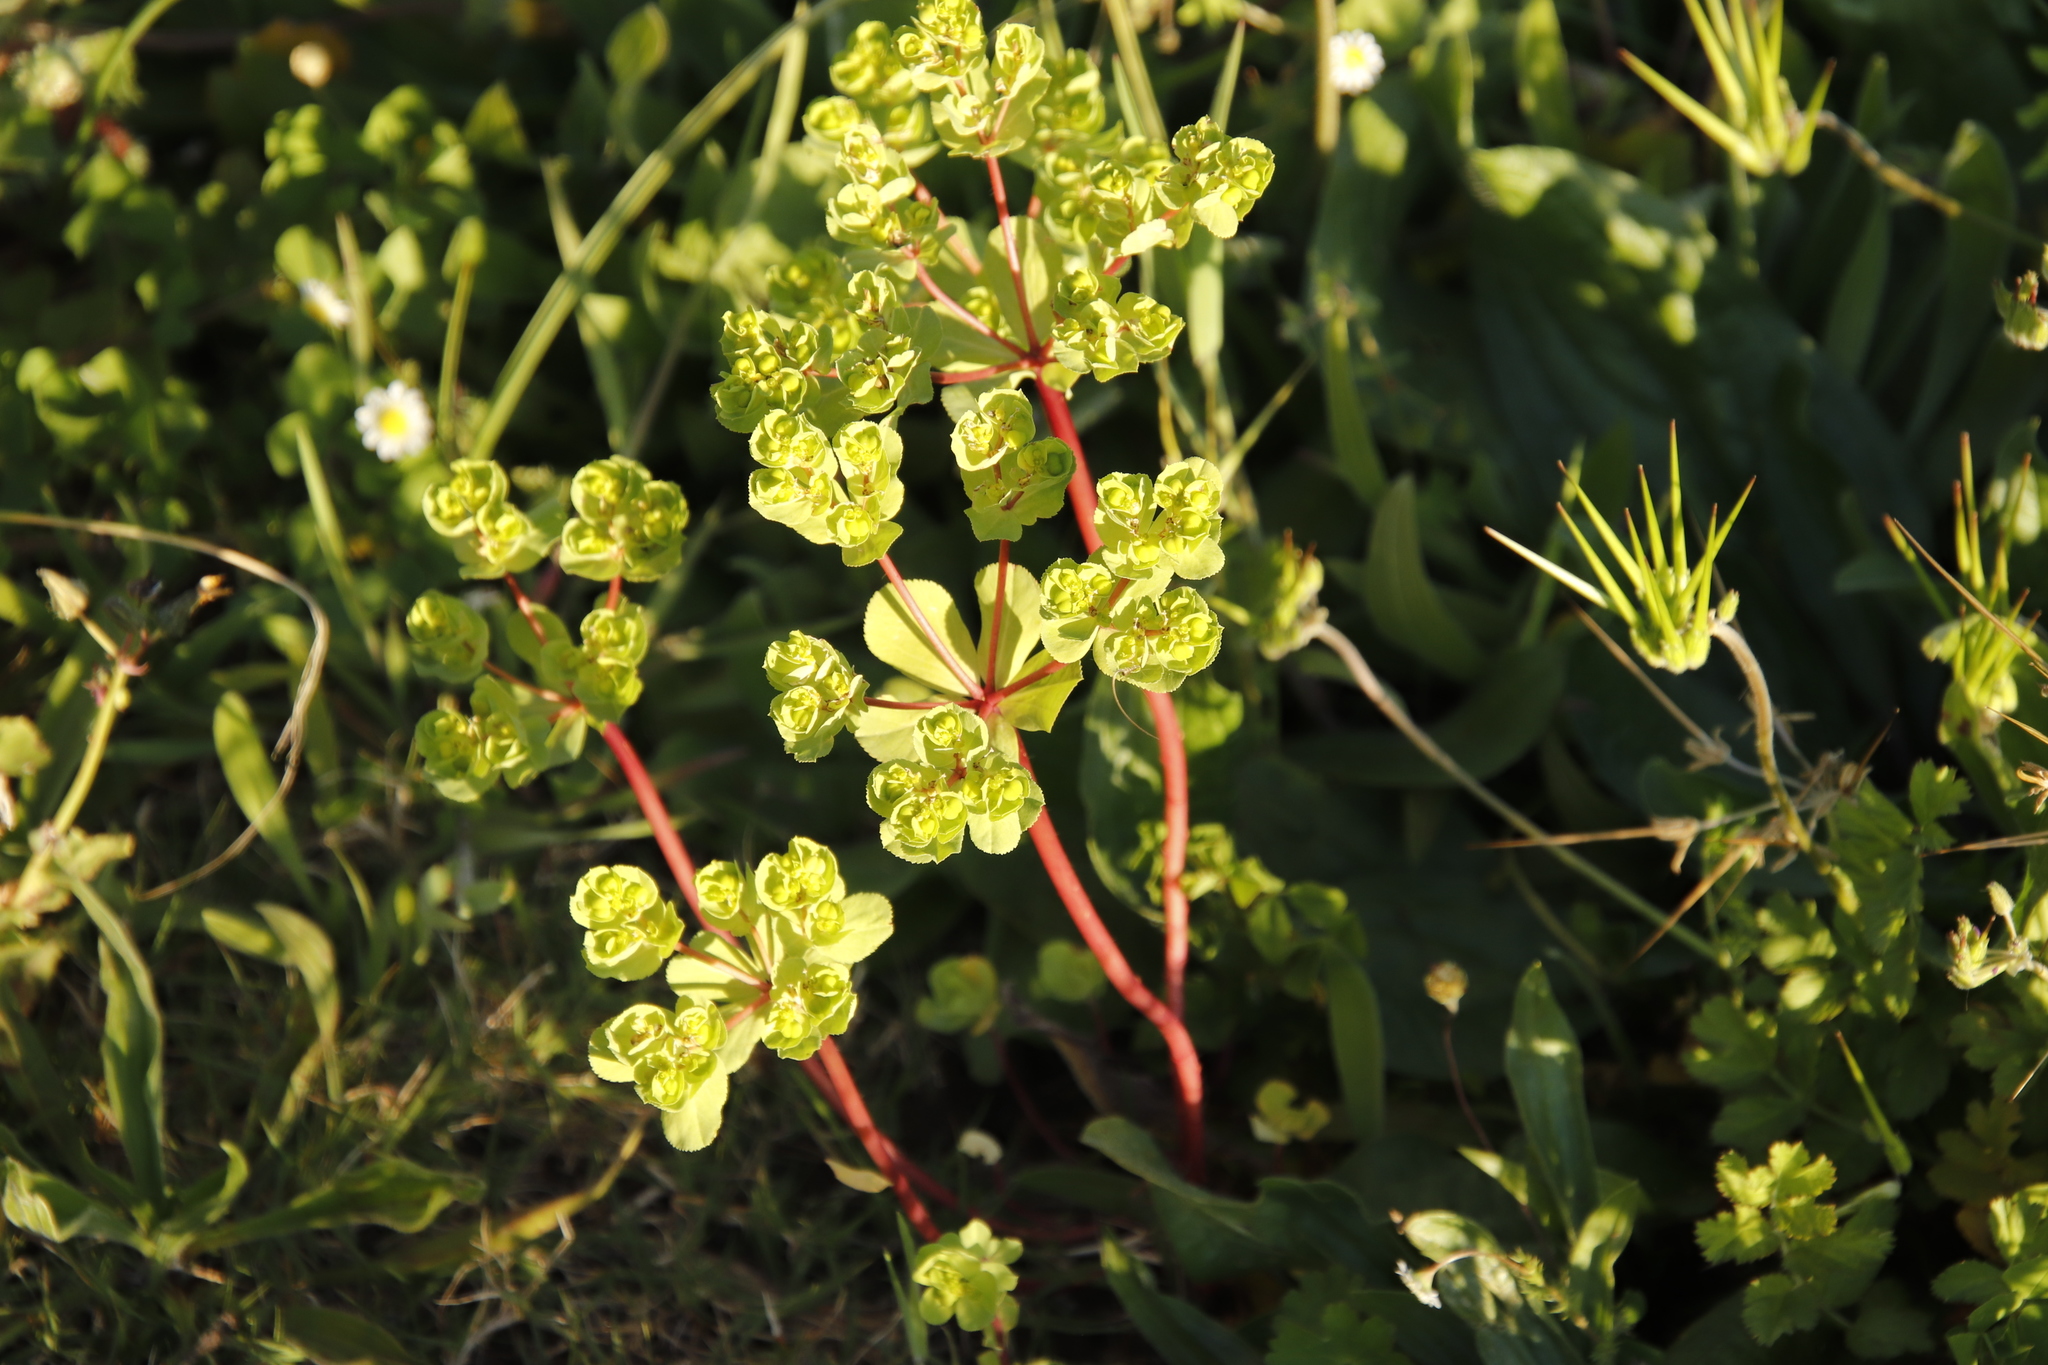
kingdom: Plantae
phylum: Tracheophyta
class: Magnoliopsida
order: Malpighiales
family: Euphorbiaceae
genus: Euphorbia
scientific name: Euphorbia helioscopia
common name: Sun spurge
